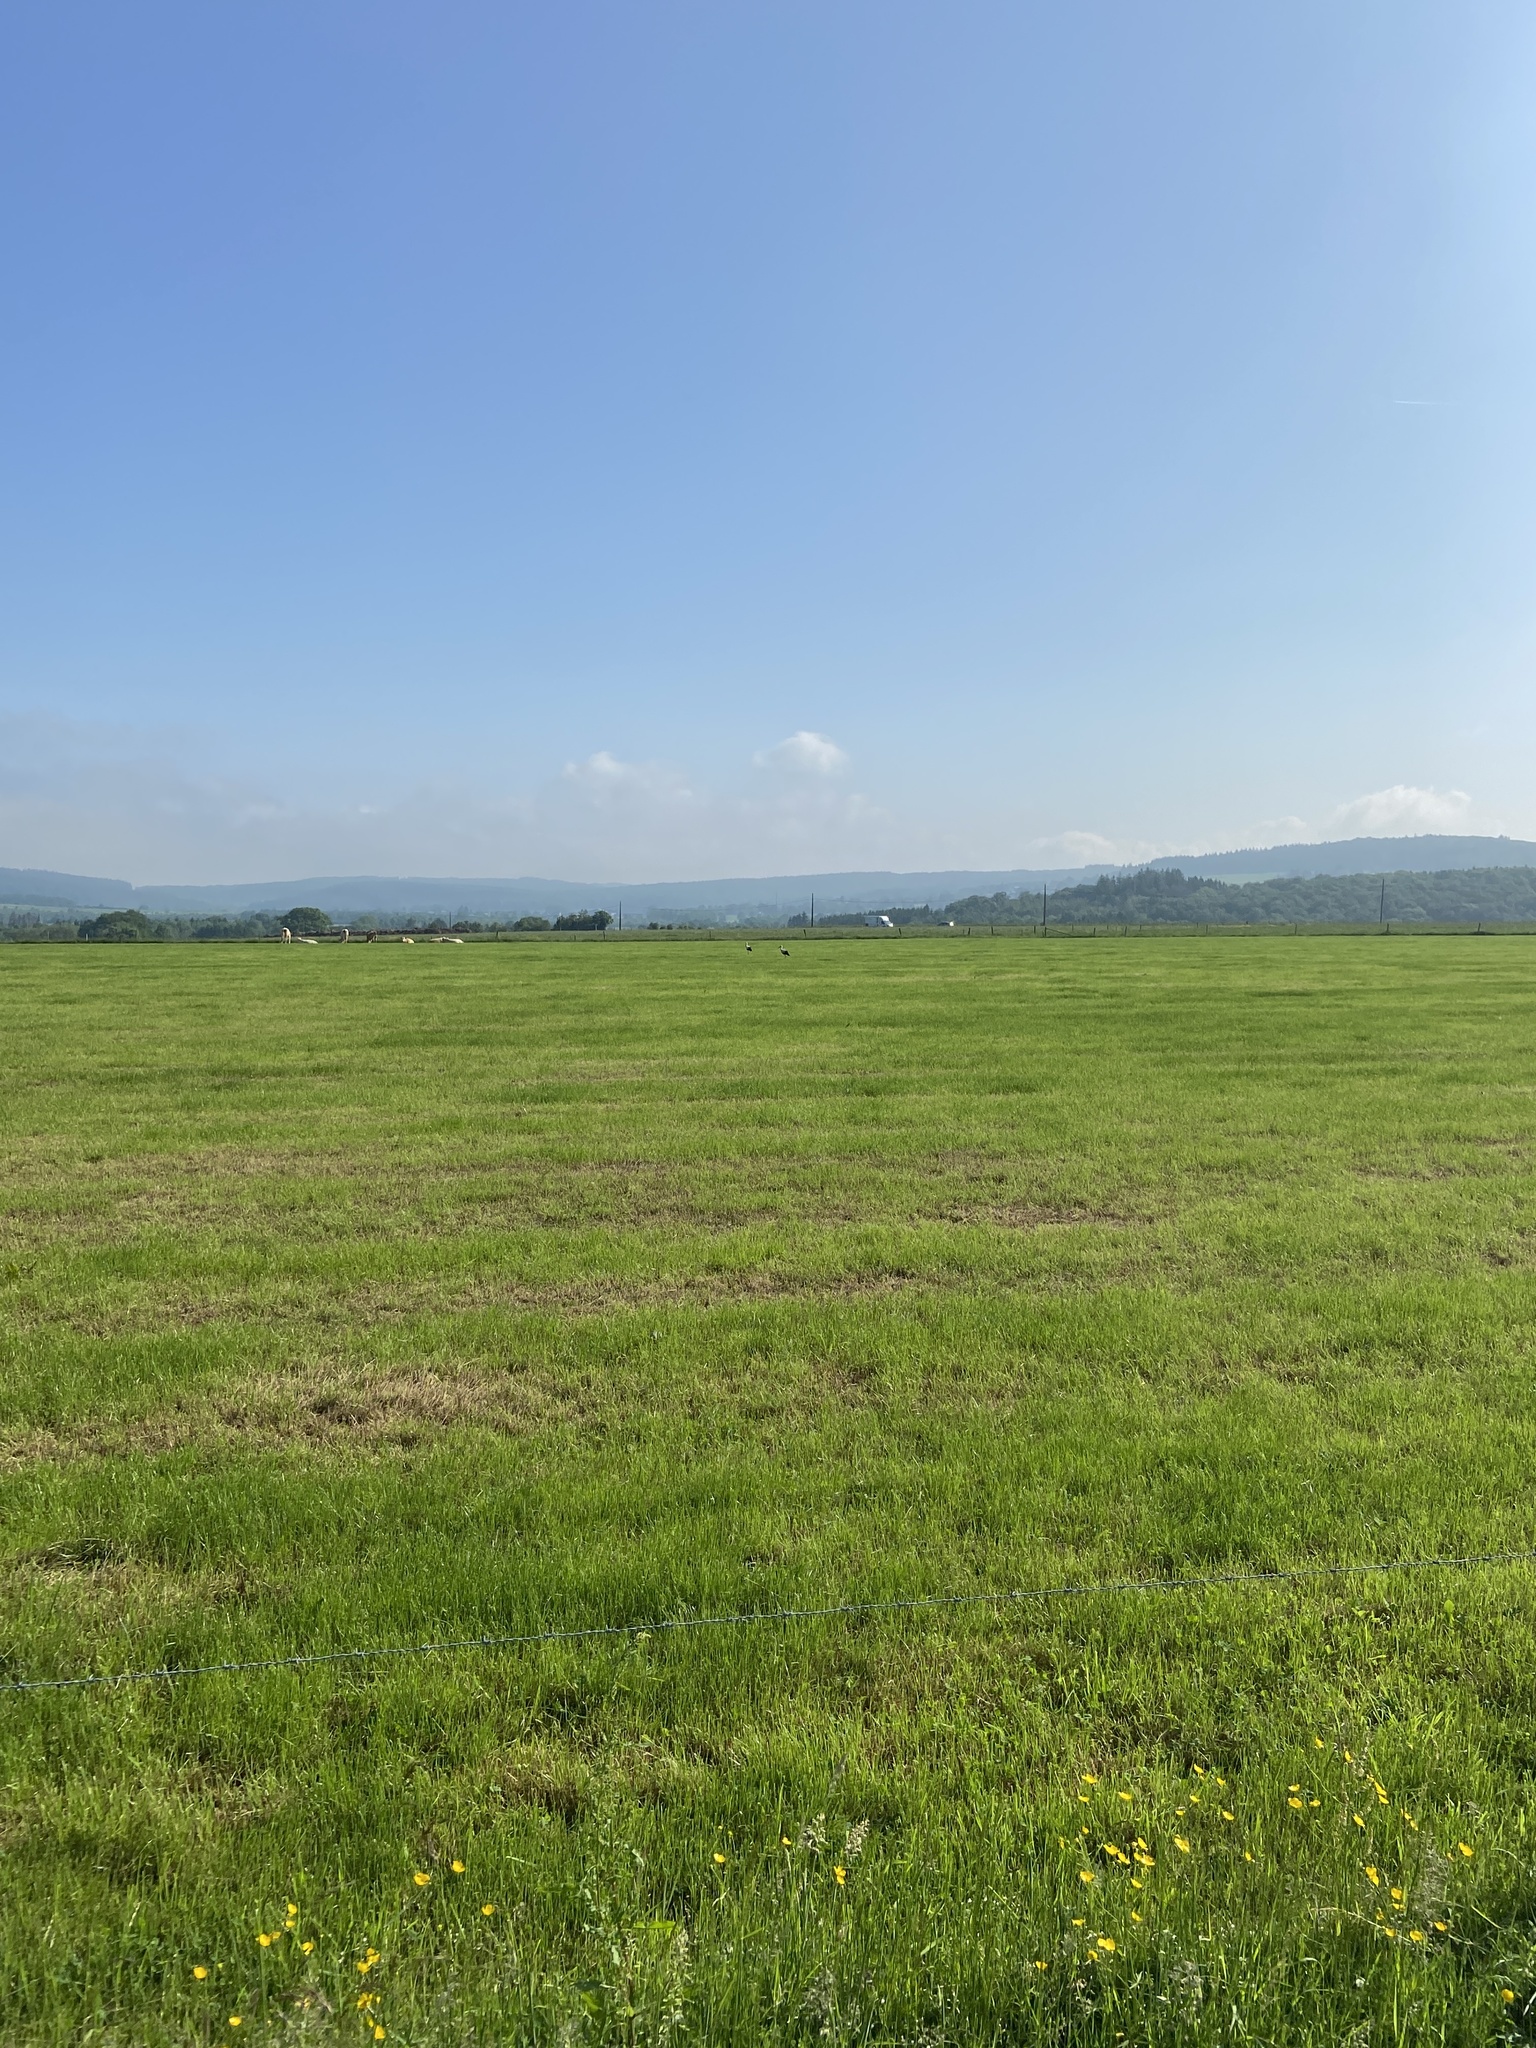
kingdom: Animalia
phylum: Chordata
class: Aves
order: Ciconiiformes
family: Ciconiidae
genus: Ciconia
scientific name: Ciconia ciconia
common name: White stork
